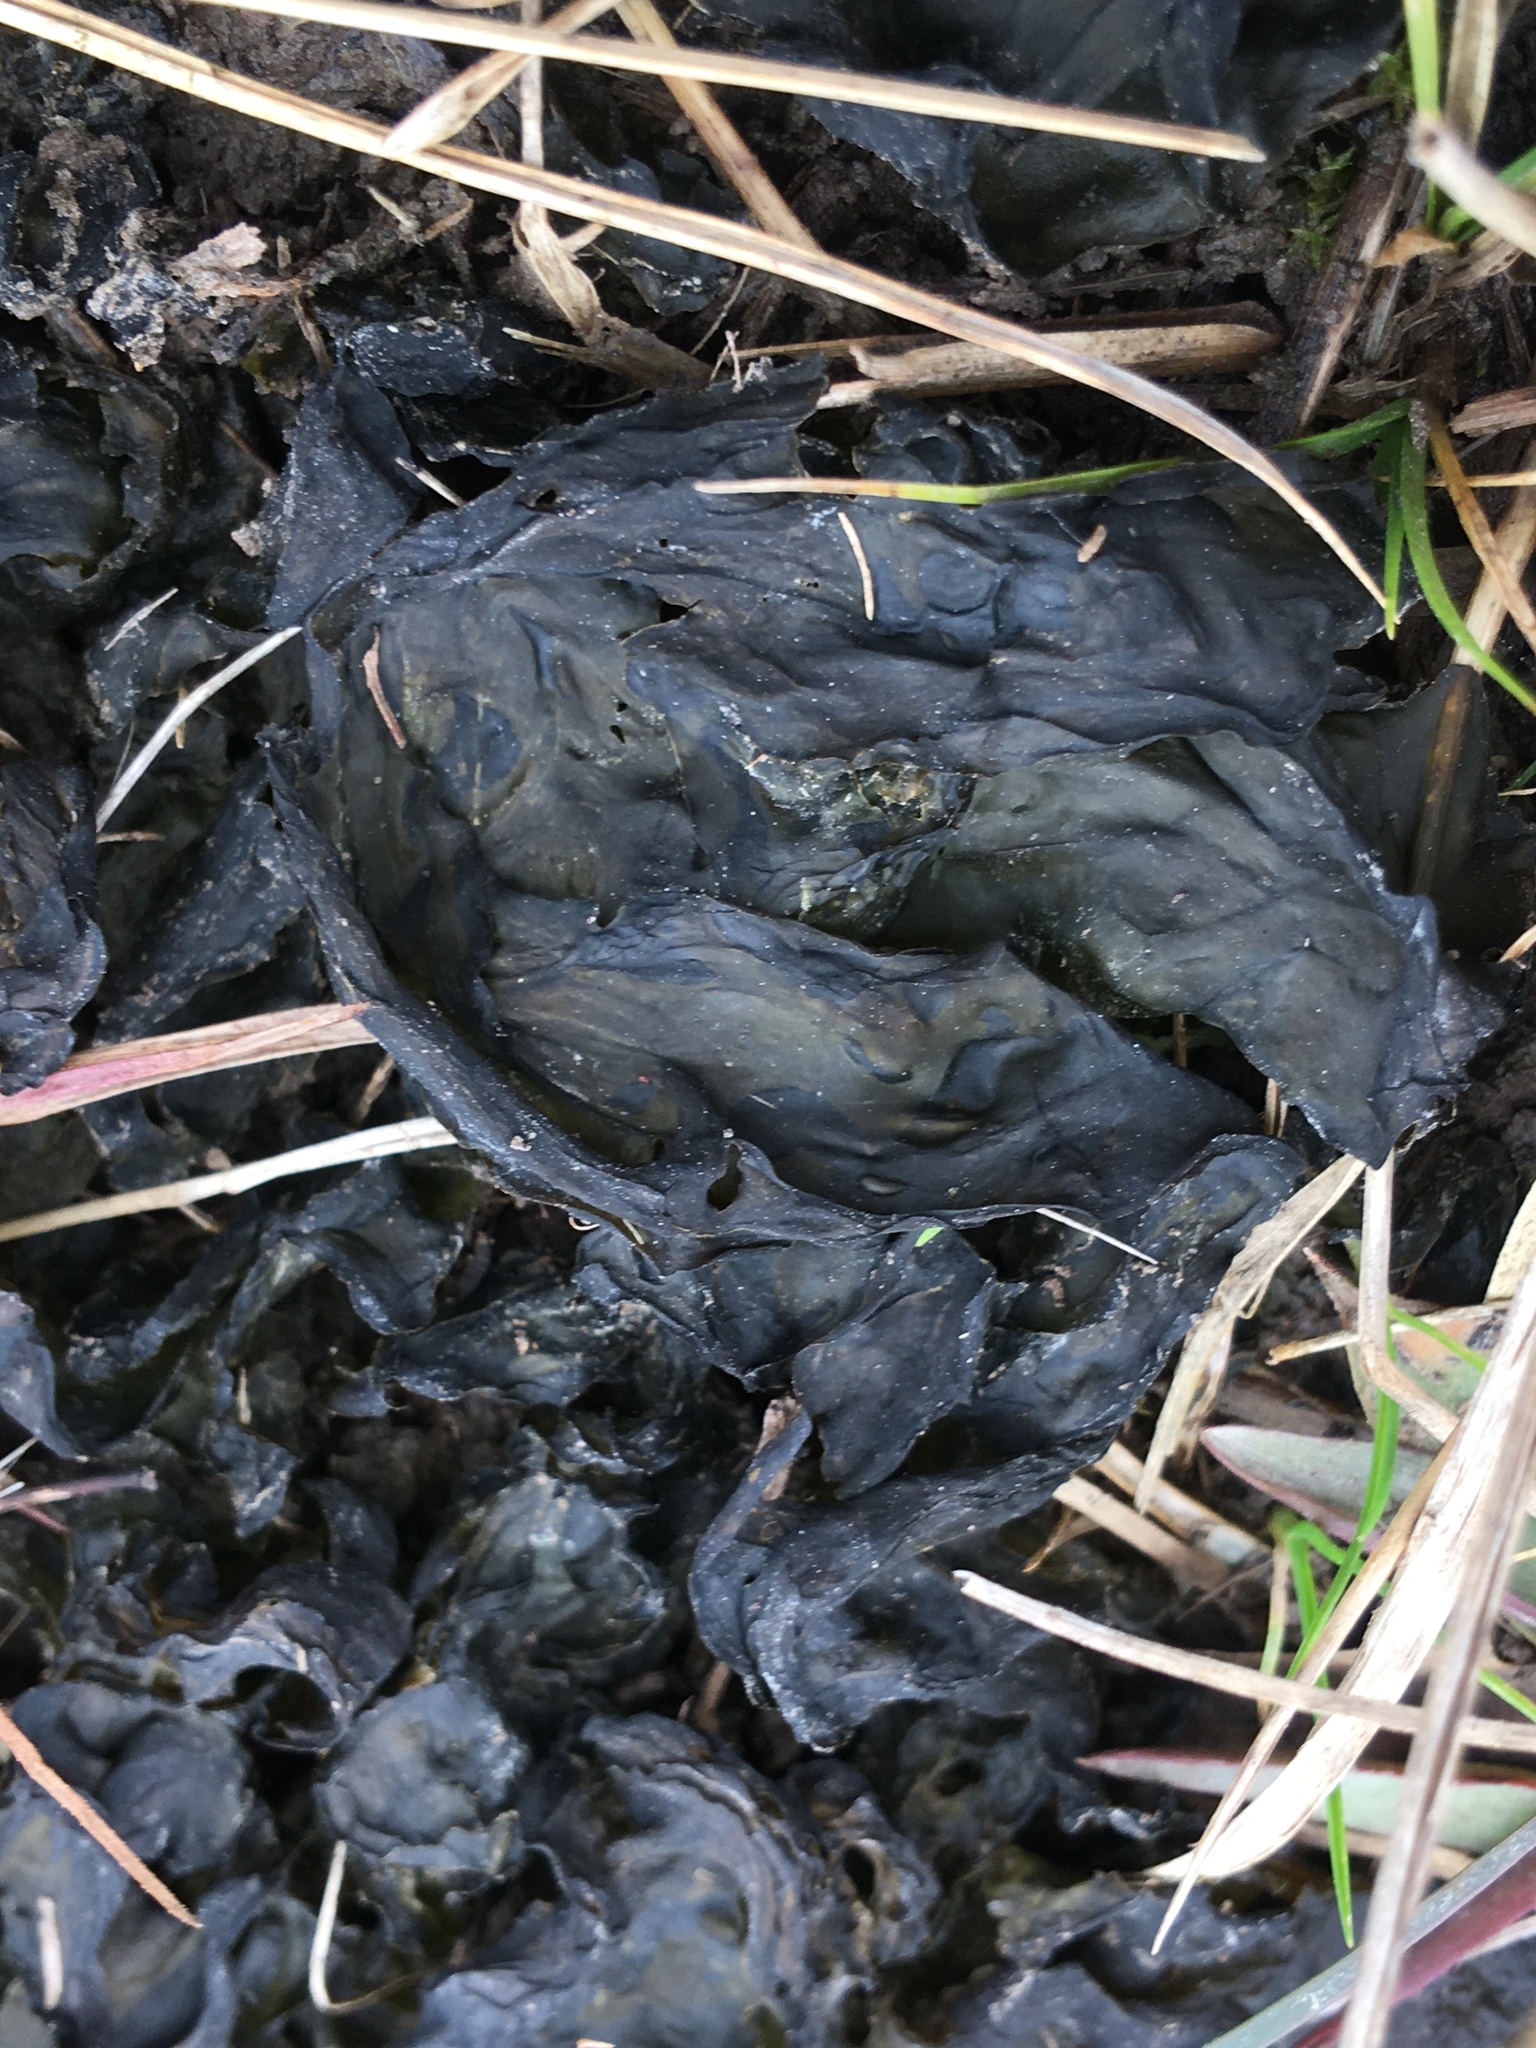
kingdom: Bacteria
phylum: Cyanobacteria
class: Cyanobacteriia
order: Cyanobacteriales
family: Nostocaceae
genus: Nostoc
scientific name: Nostoc commune
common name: Star jelly
